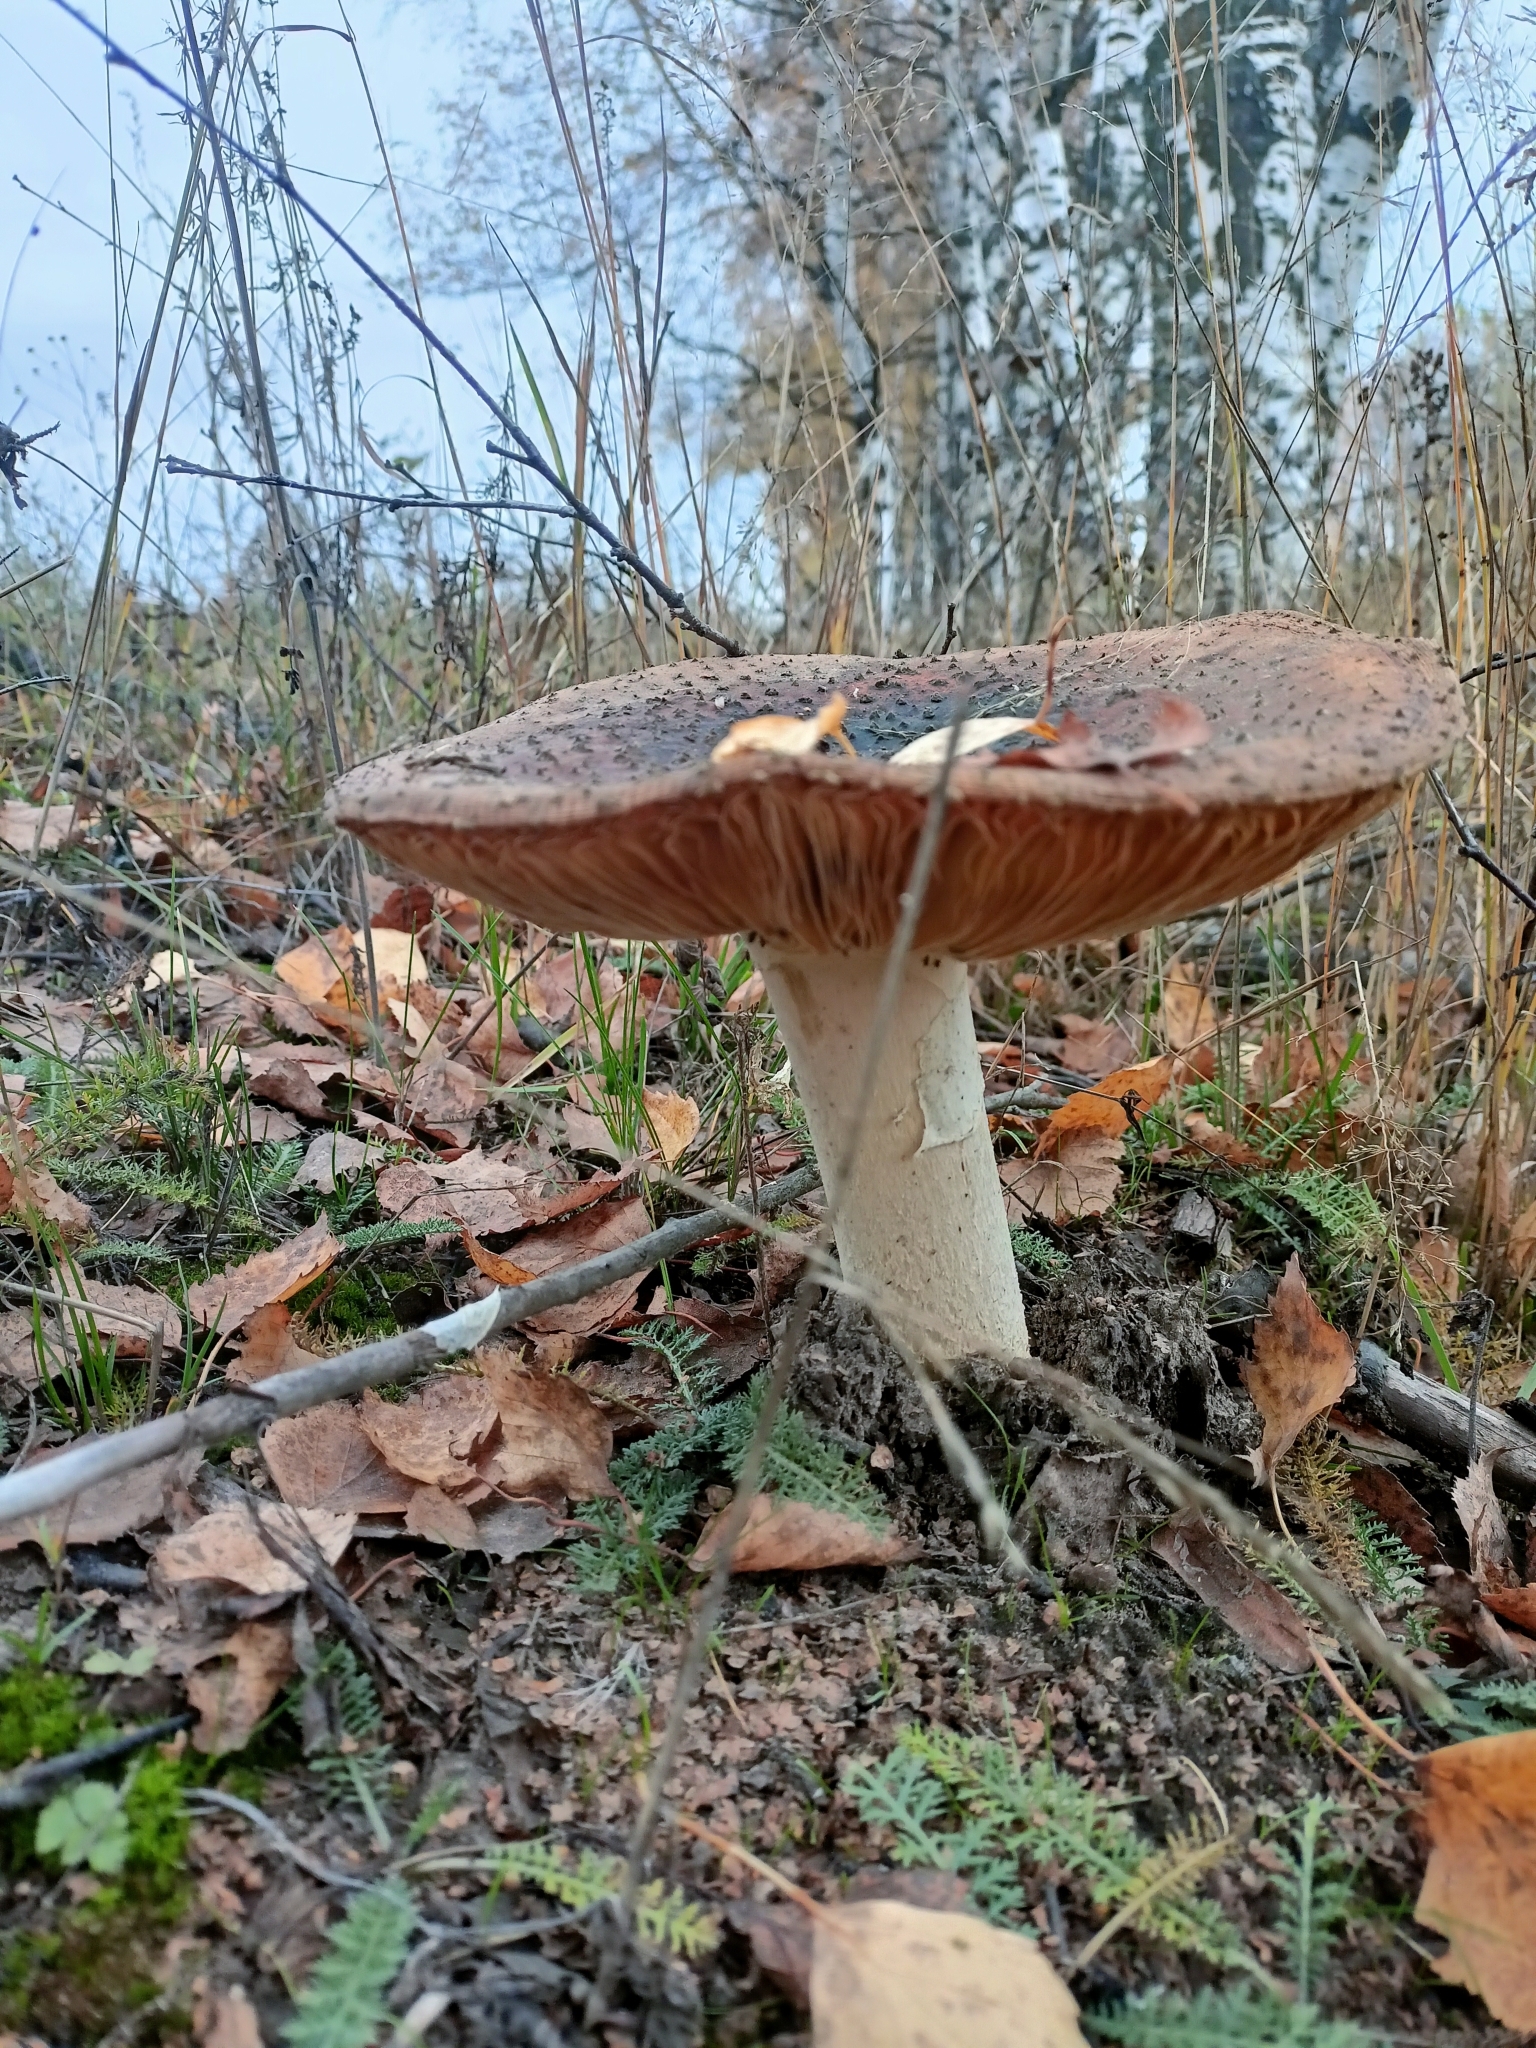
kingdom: Fungi
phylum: Basidiomycota
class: Agaricomycetes
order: Agaricales
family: Amanitaceae
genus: Amanita
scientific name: Amanita muscaria
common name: Fly agaric
